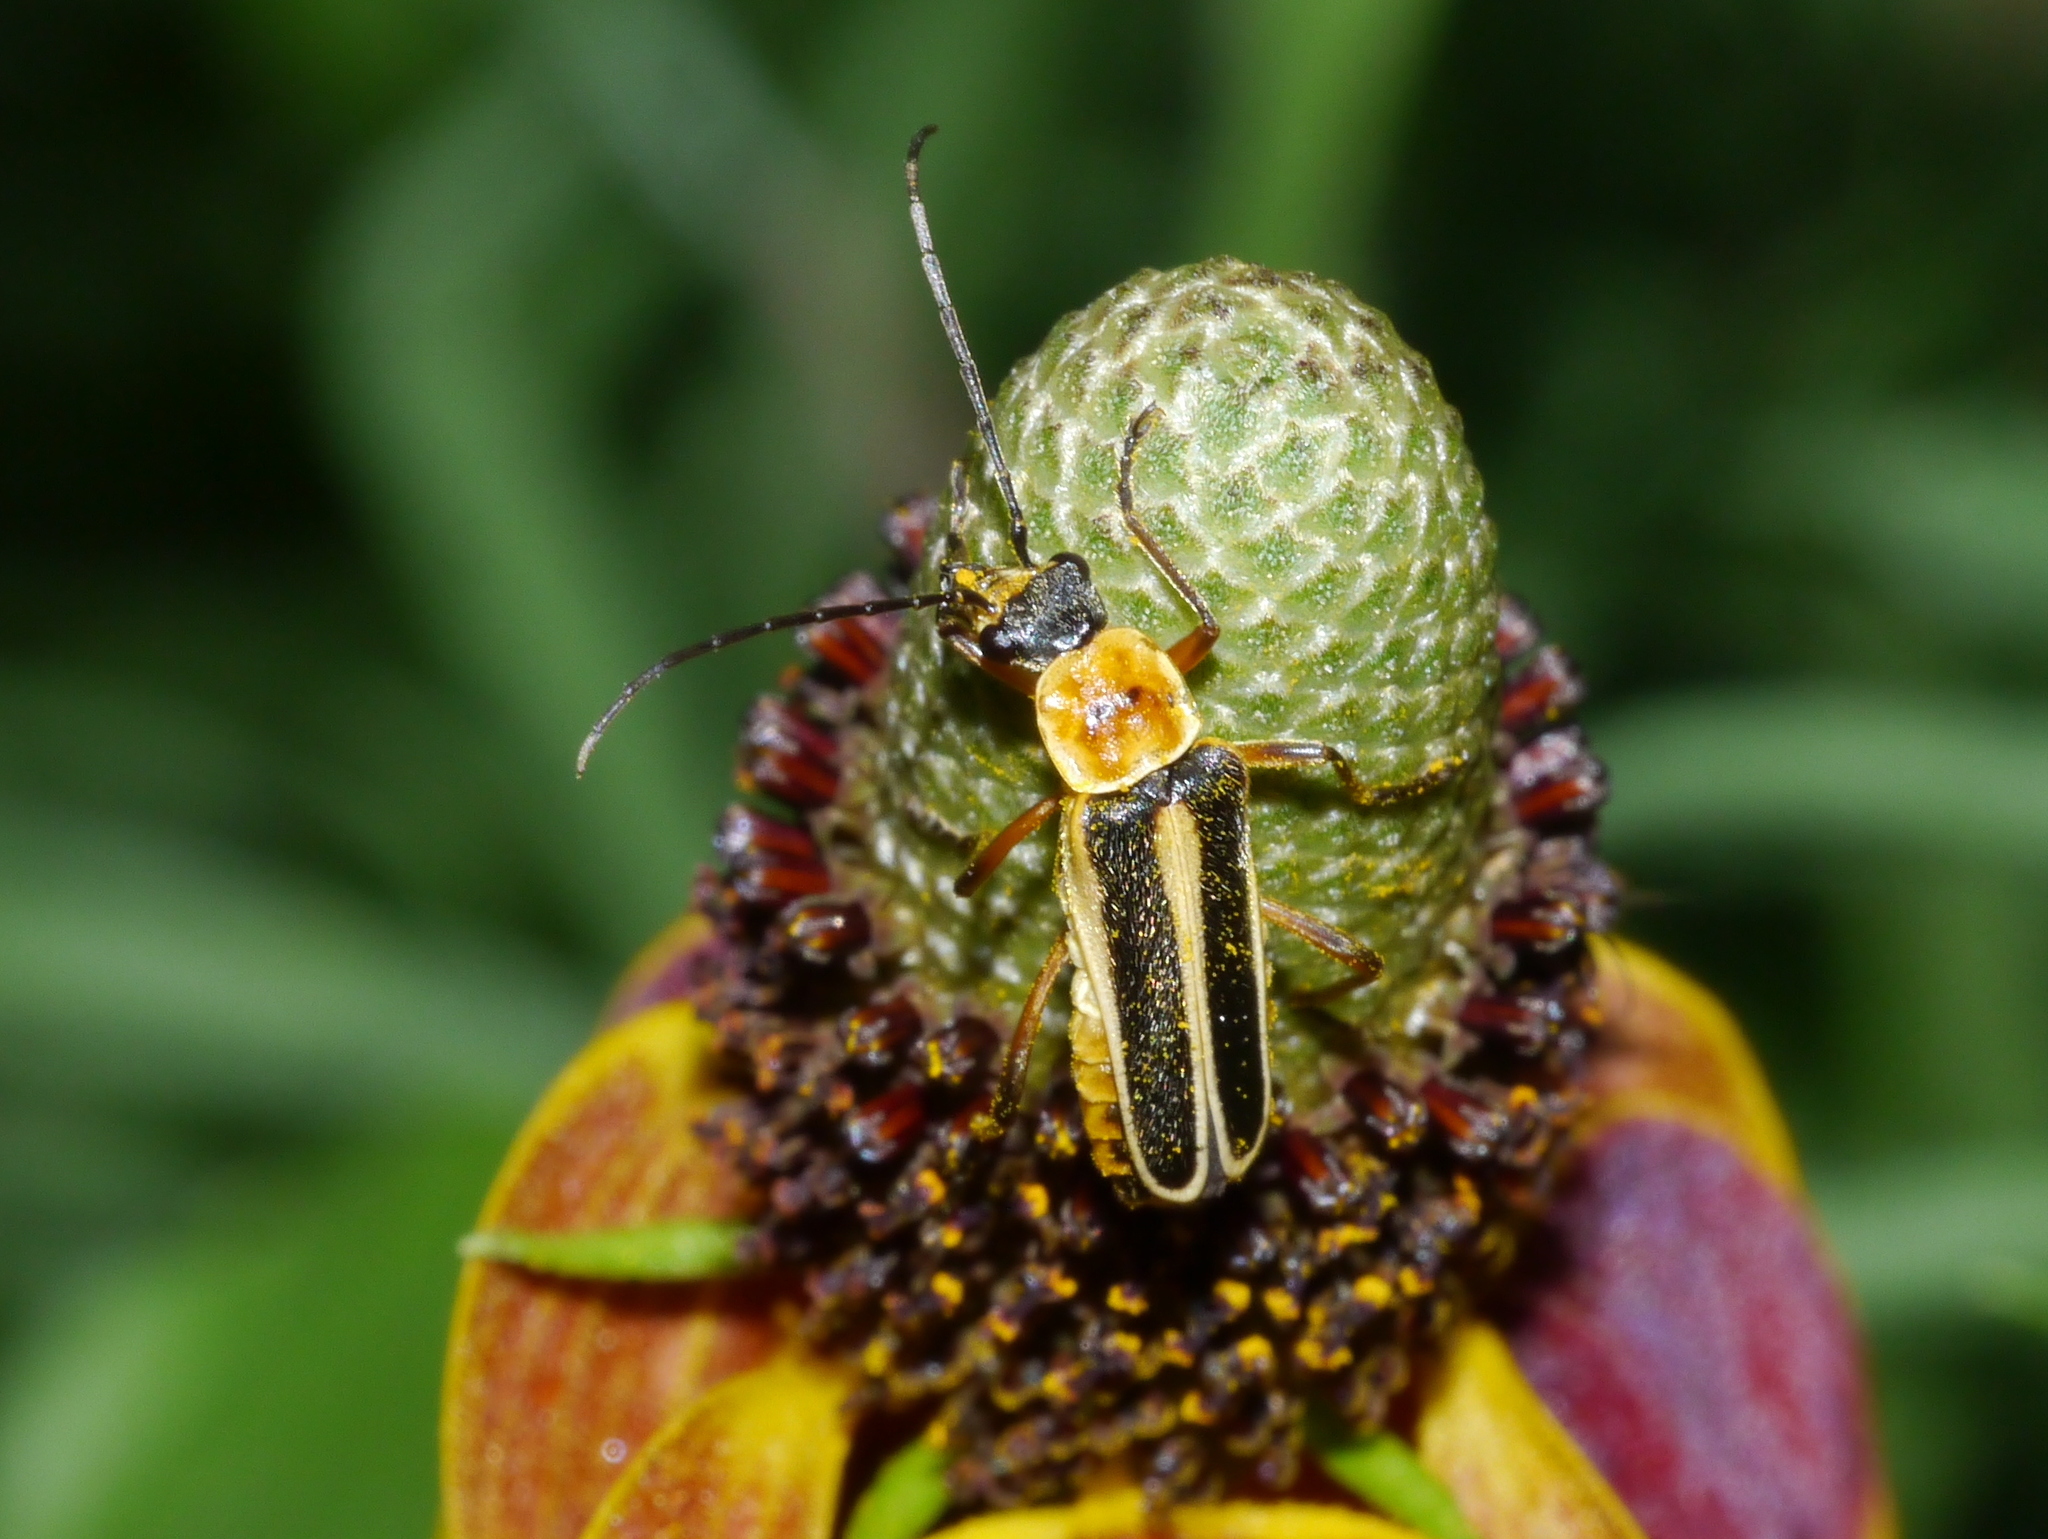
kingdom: Animalia
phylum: Arthropoda
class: Insecta
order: Coleoptera
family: Cantharidae
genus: Chauliognathus
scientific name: Chauliognathus lewisi
